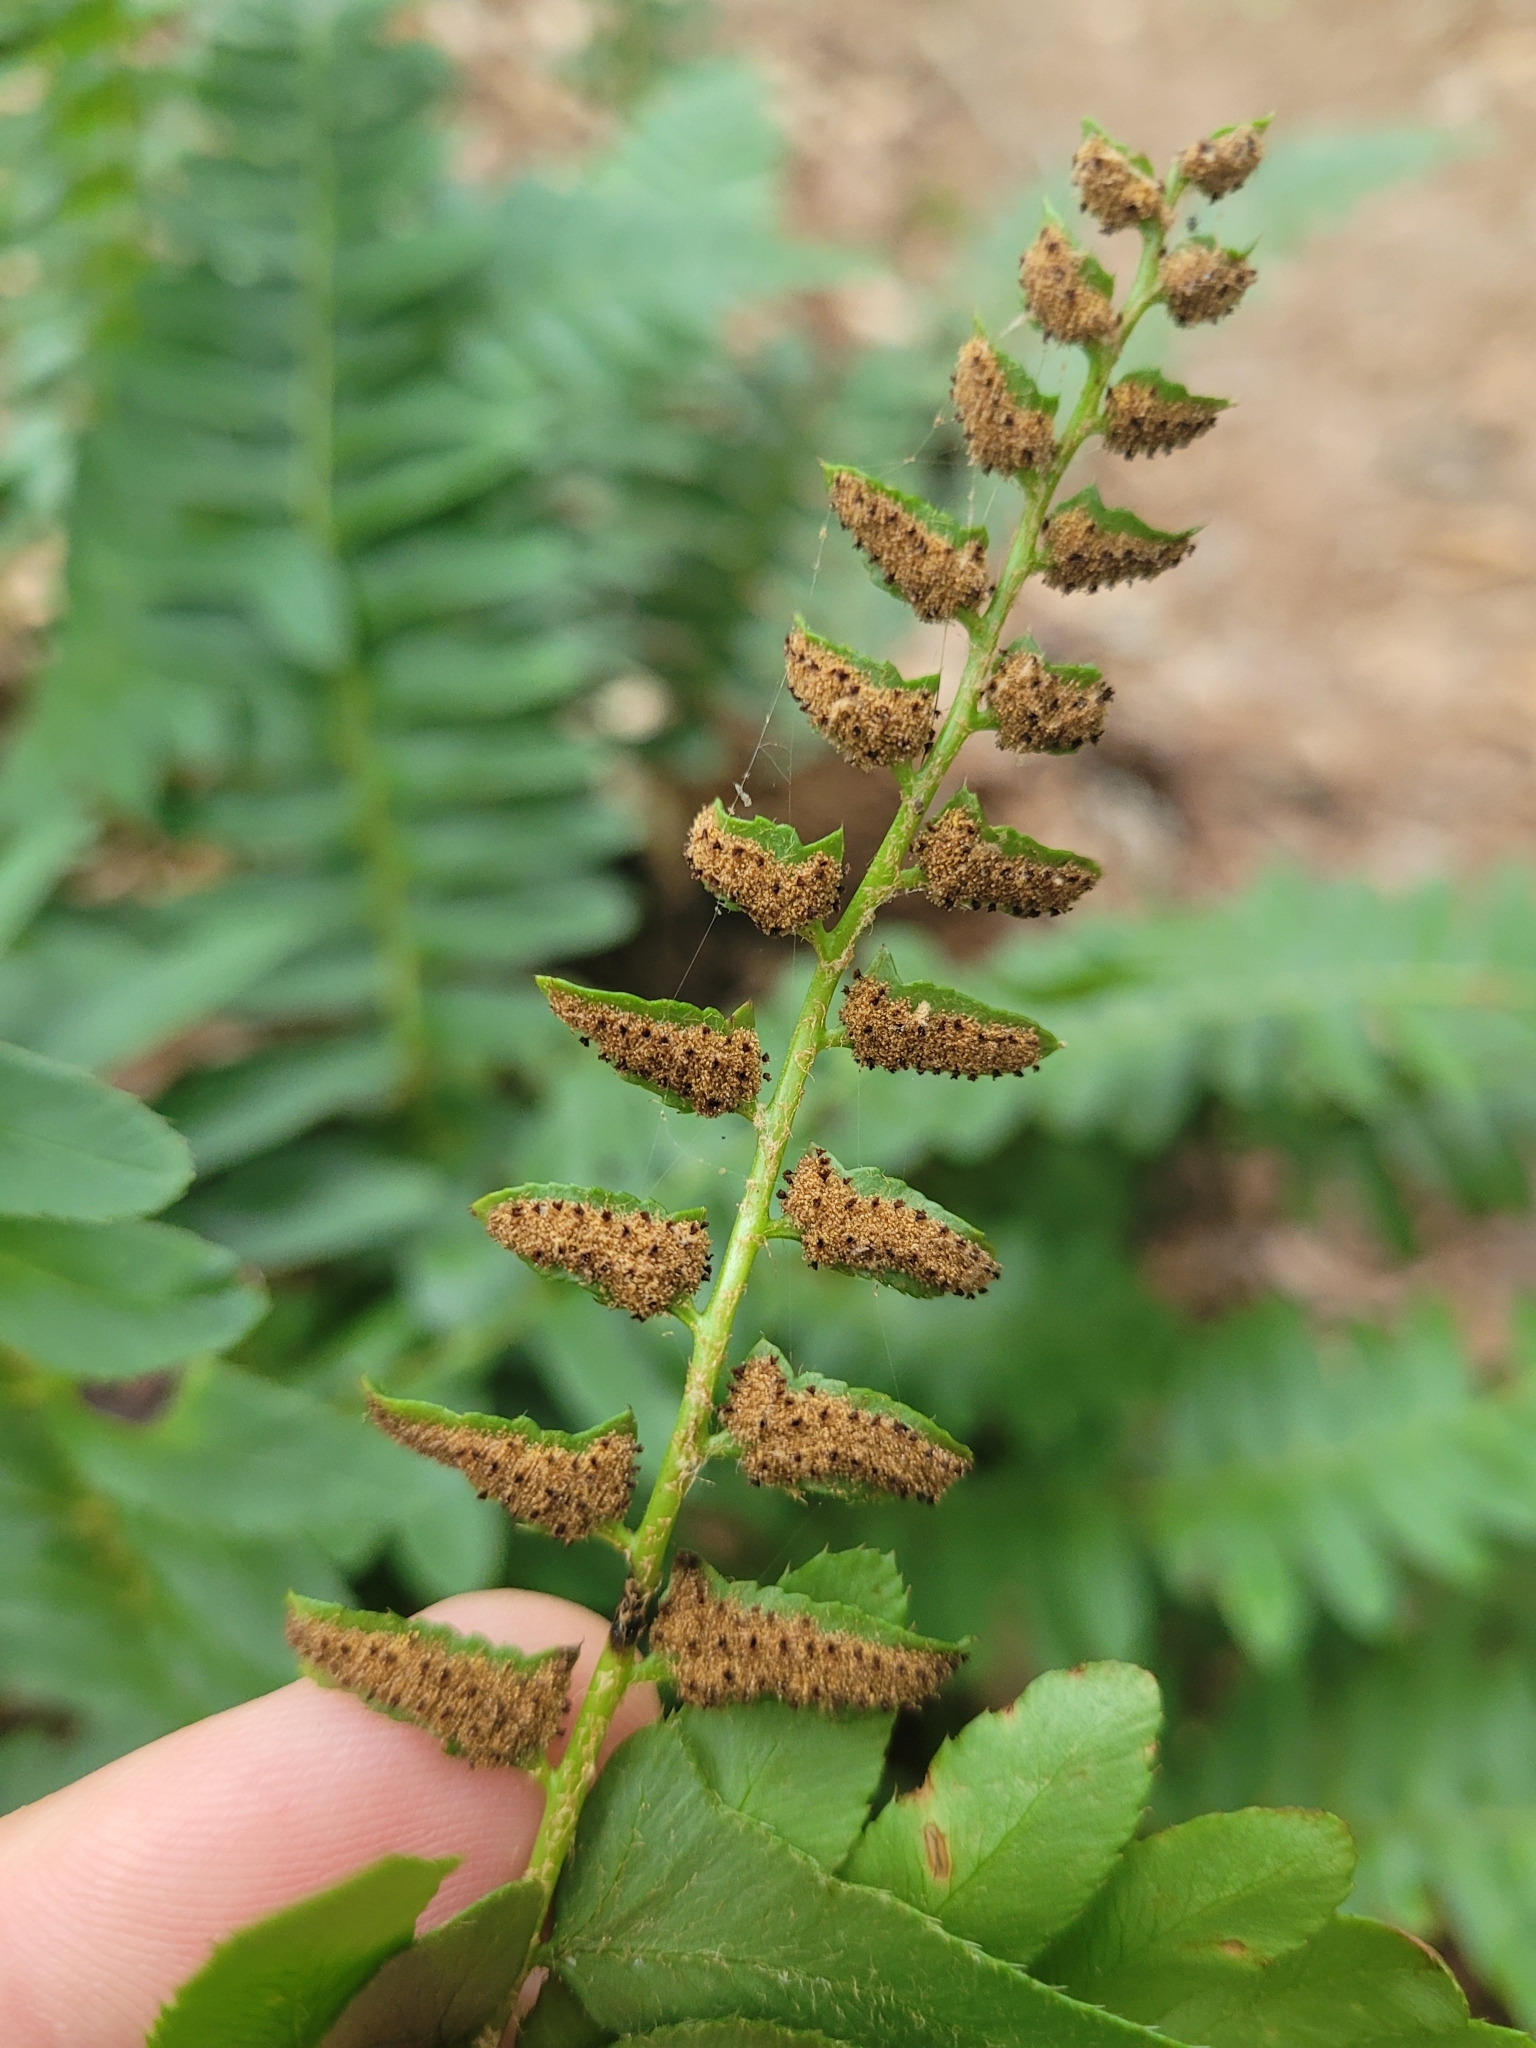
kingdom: Plantae
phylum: Tracheophyta
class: Polypodiopsida
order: Polypodiales
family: Dryopteridaceae
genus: Polystichum
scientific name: Polystichum acrostichoides
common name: Christmas fern
